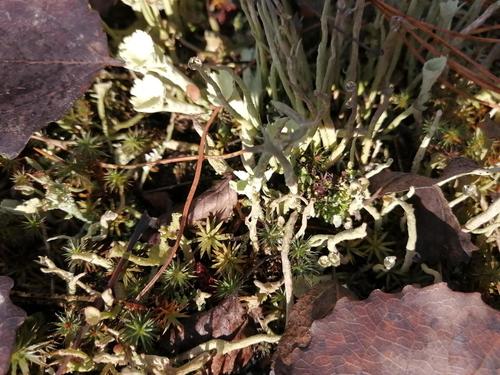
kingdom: Fungi
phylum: Ascomycota
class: Lecanoromycetes
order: Lecanorales
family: Cladoniaceae
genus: Cladonia
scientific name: Cladonia fimbriata
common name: Powdered trumpet lichen
